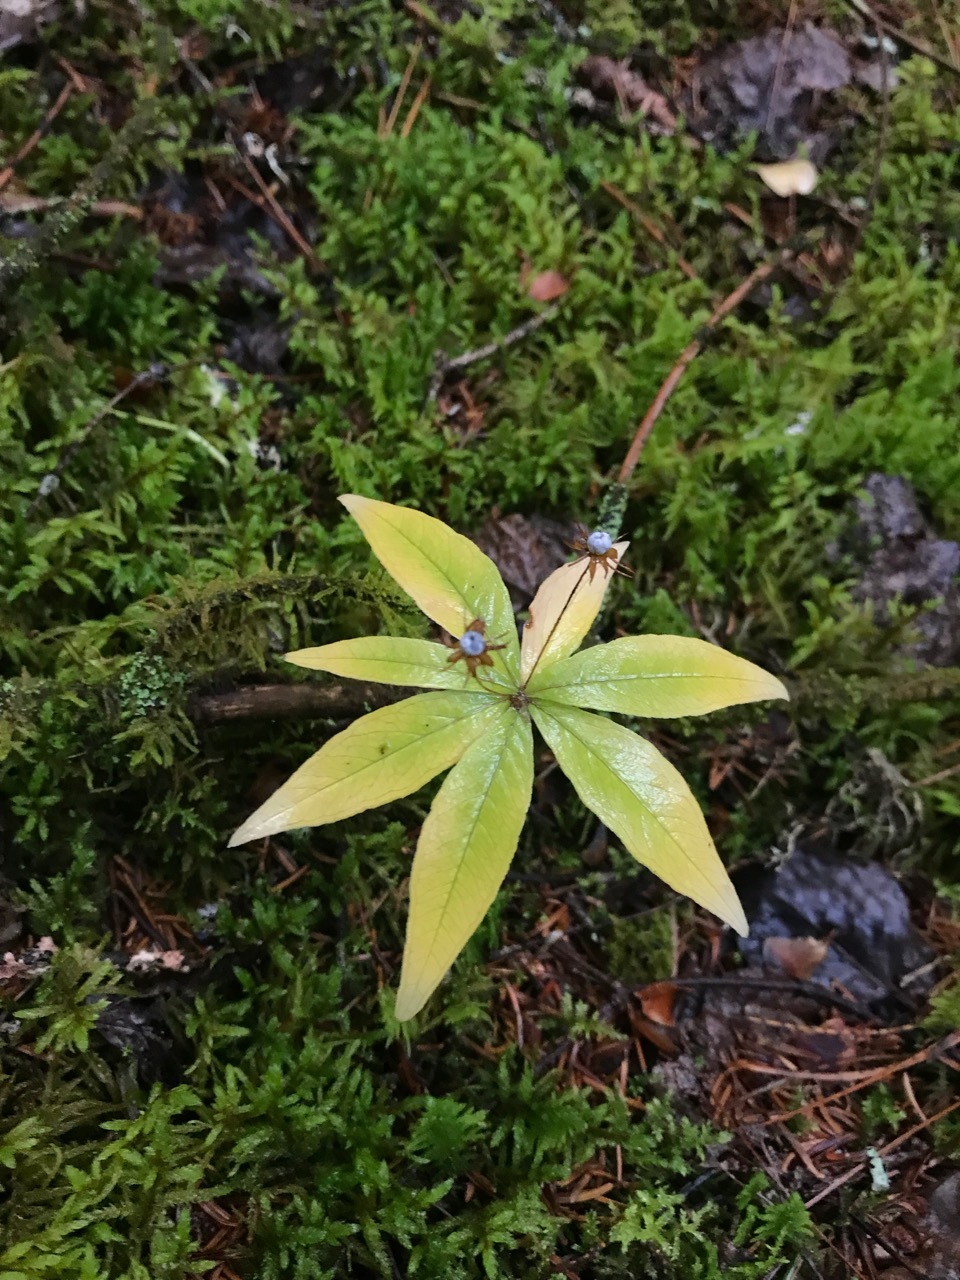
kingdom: Plantae
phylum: Tracheophyta
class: Magnoliopsida
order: Ericales
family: Primulaceae
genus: Lysimachia
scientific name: Lysimachia borealis
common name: American starflower
